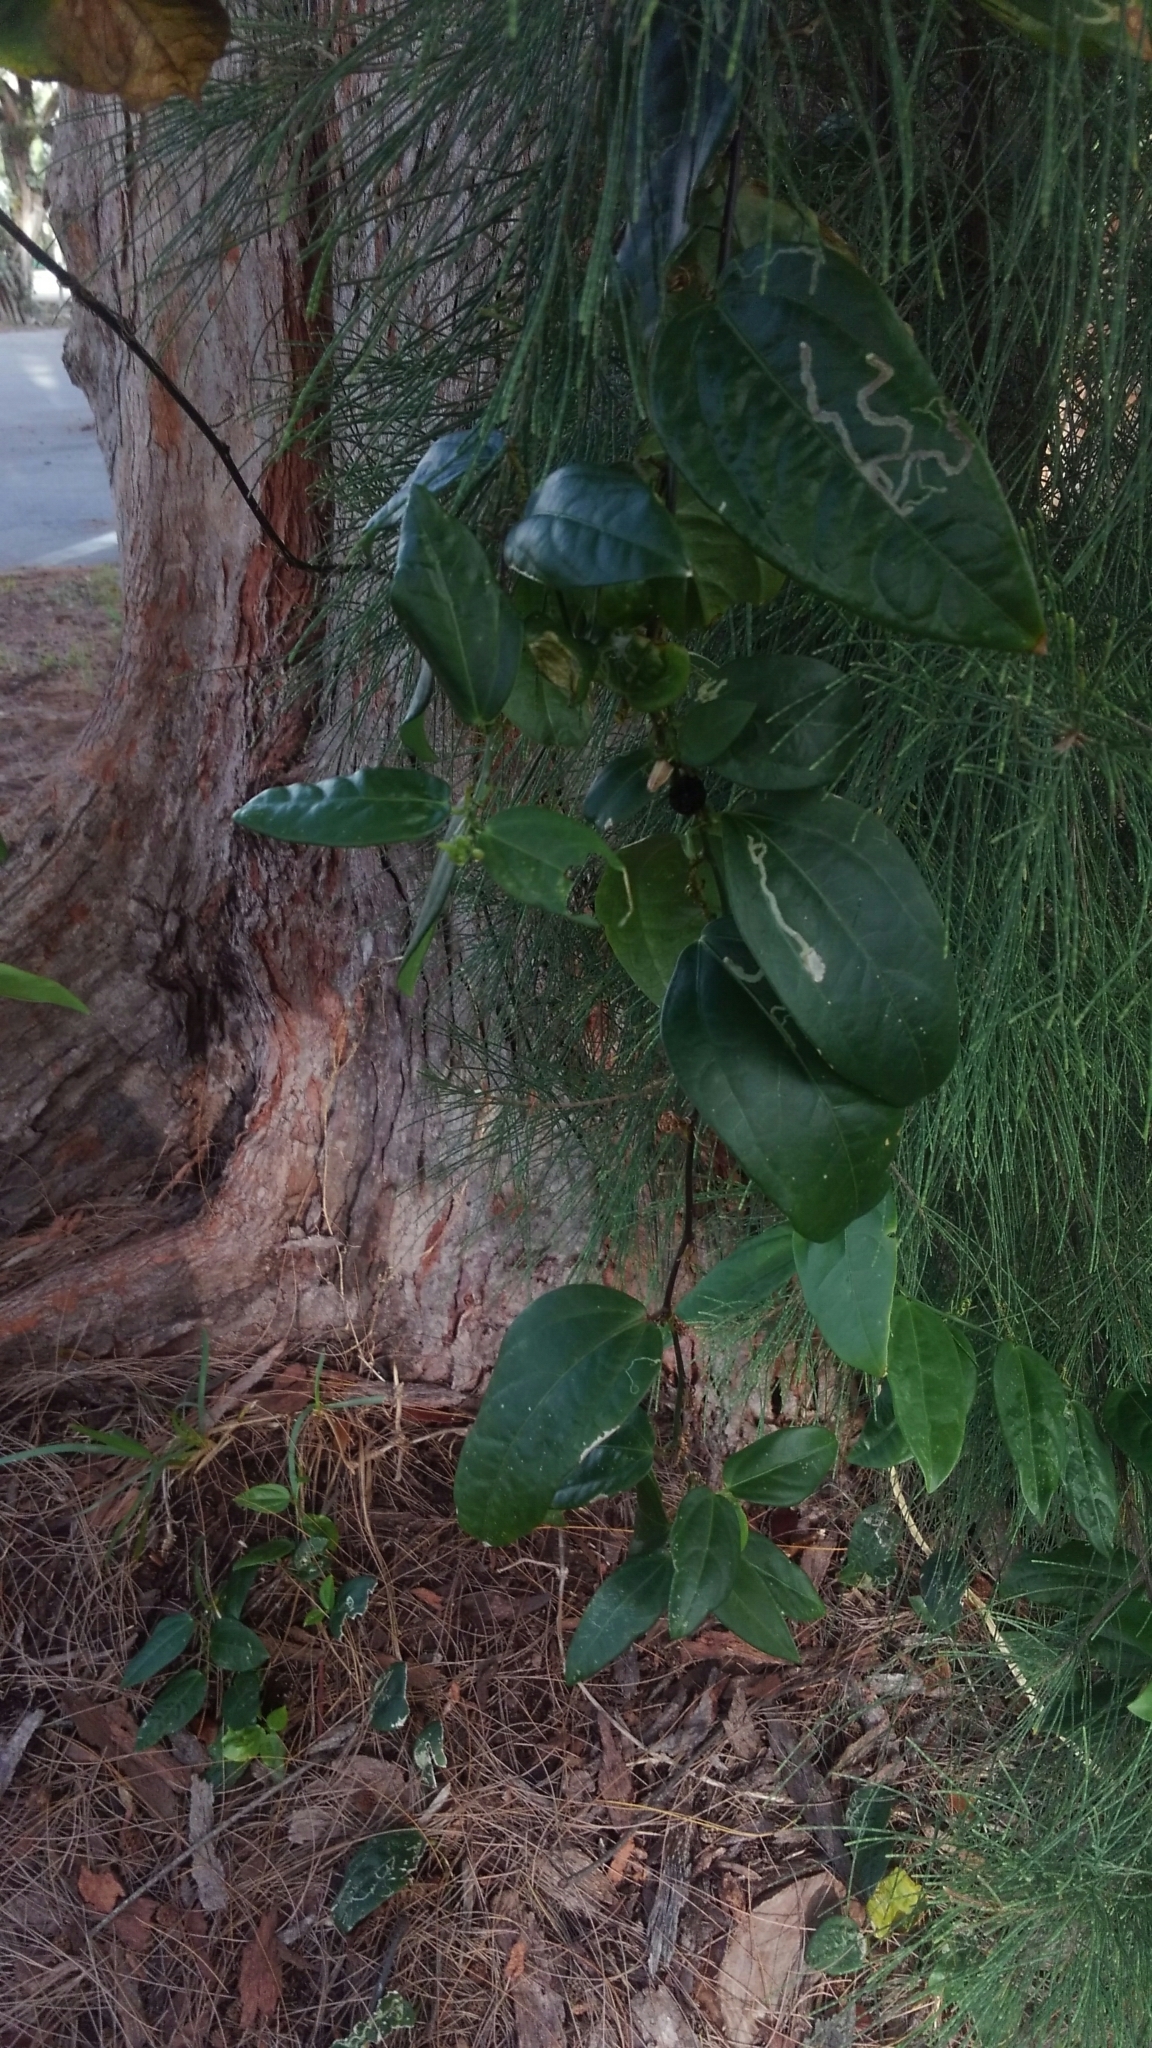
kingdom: Plantae
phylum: Tracheophyta
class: Magnoliopsida
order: Malpighiales
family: Passifloraceae
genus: Passiflora
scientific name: Passiflora pallida
